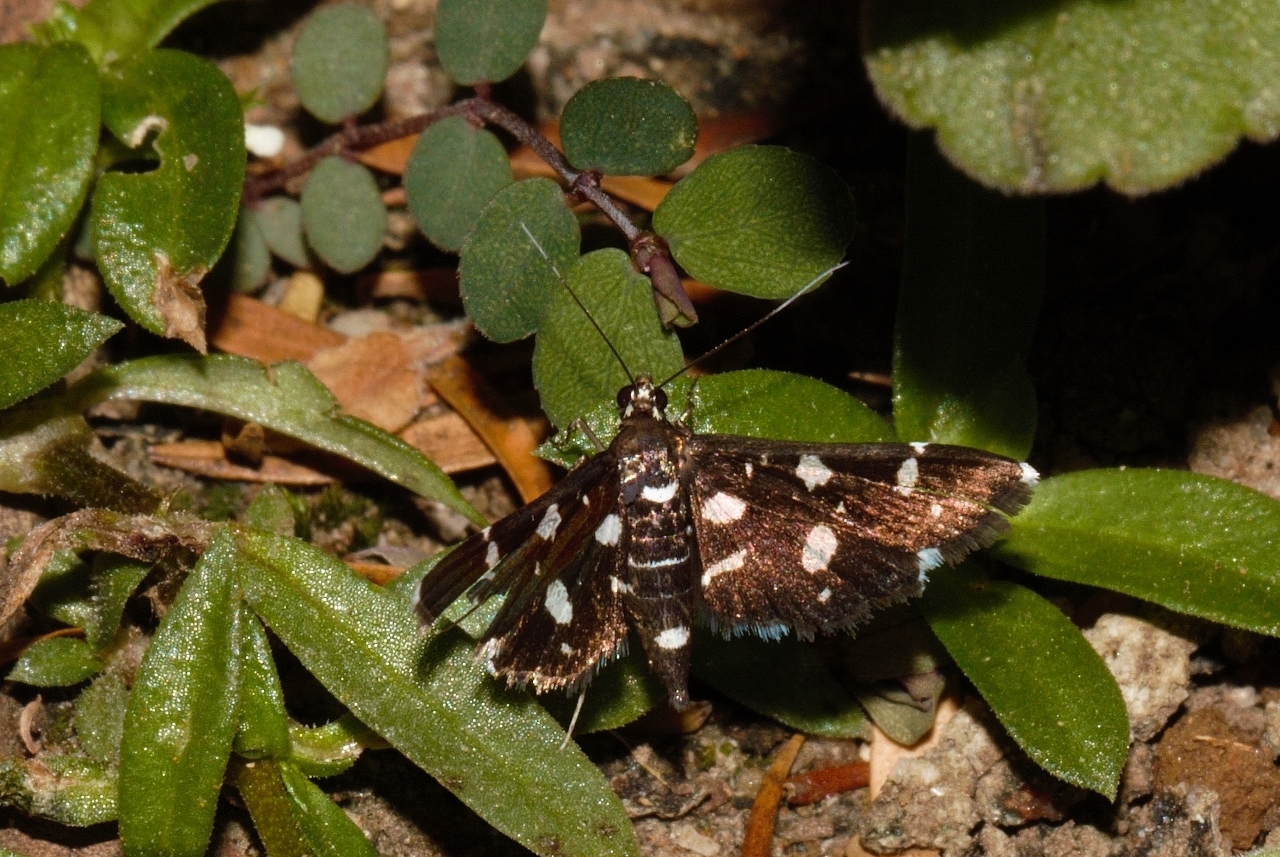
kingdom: Animalia
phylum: Arthropoda
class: Insecta
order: Lepidoptera
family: Crambidae
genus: Bocchoris
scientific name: Bocchoris inspersalis
